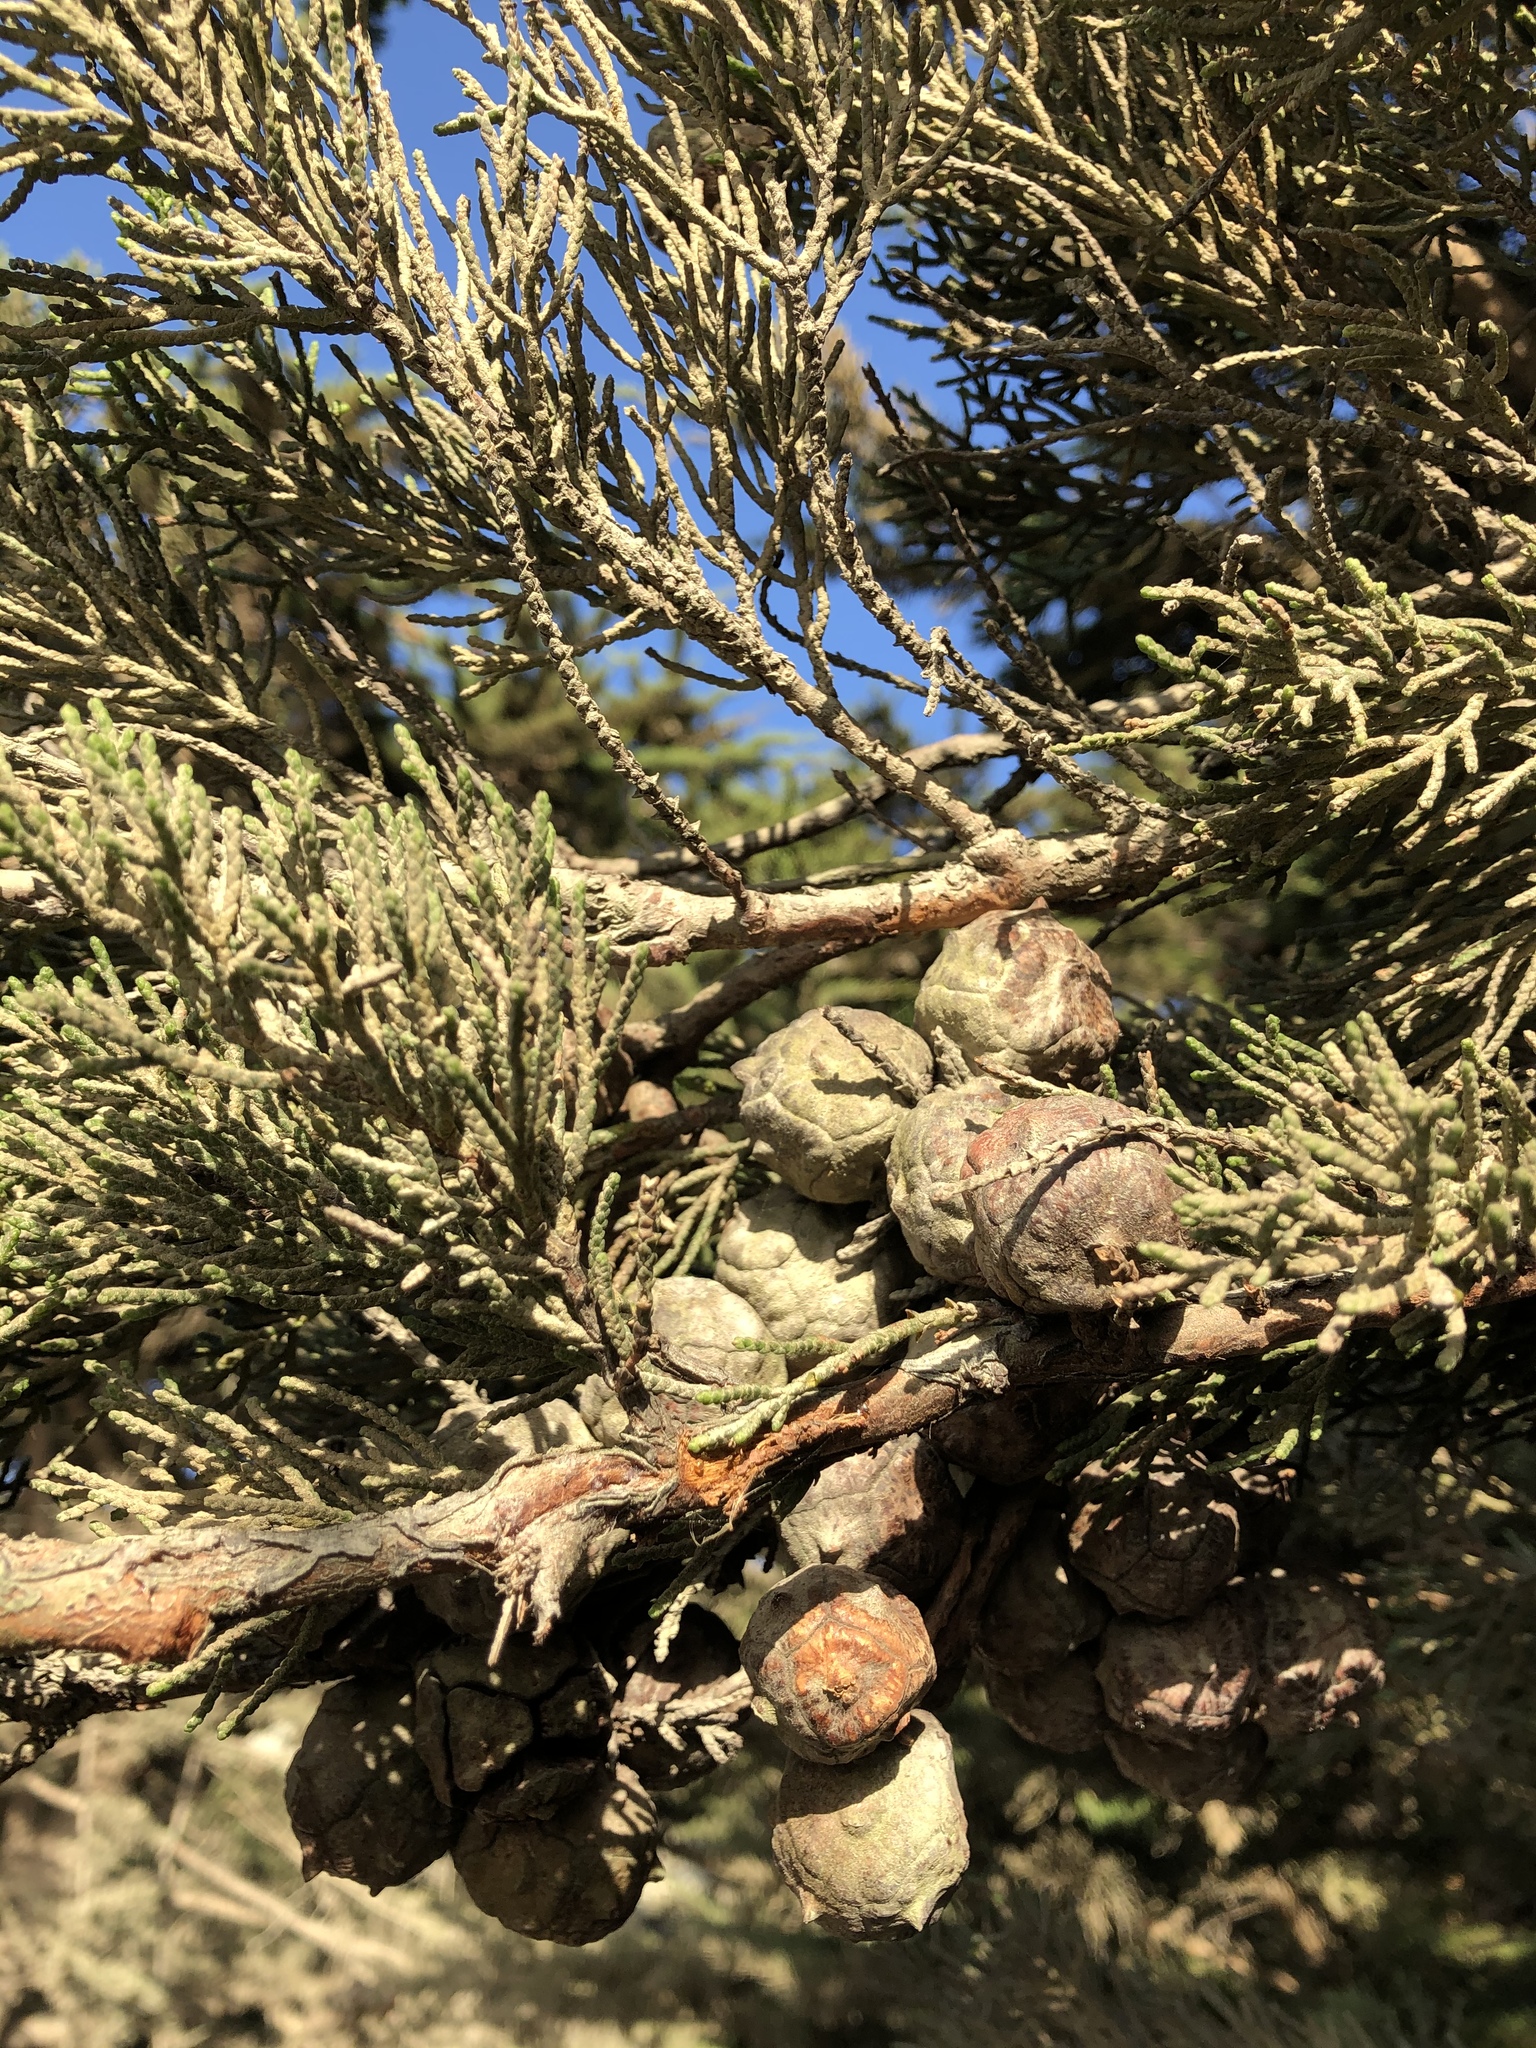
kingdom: Plantae
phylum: Tracheophyta
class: Pinopsida
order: Pinales
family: Cupressaceae
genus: Cupressus
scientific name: Cupressus macrocarpa
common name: Monterey cypress
